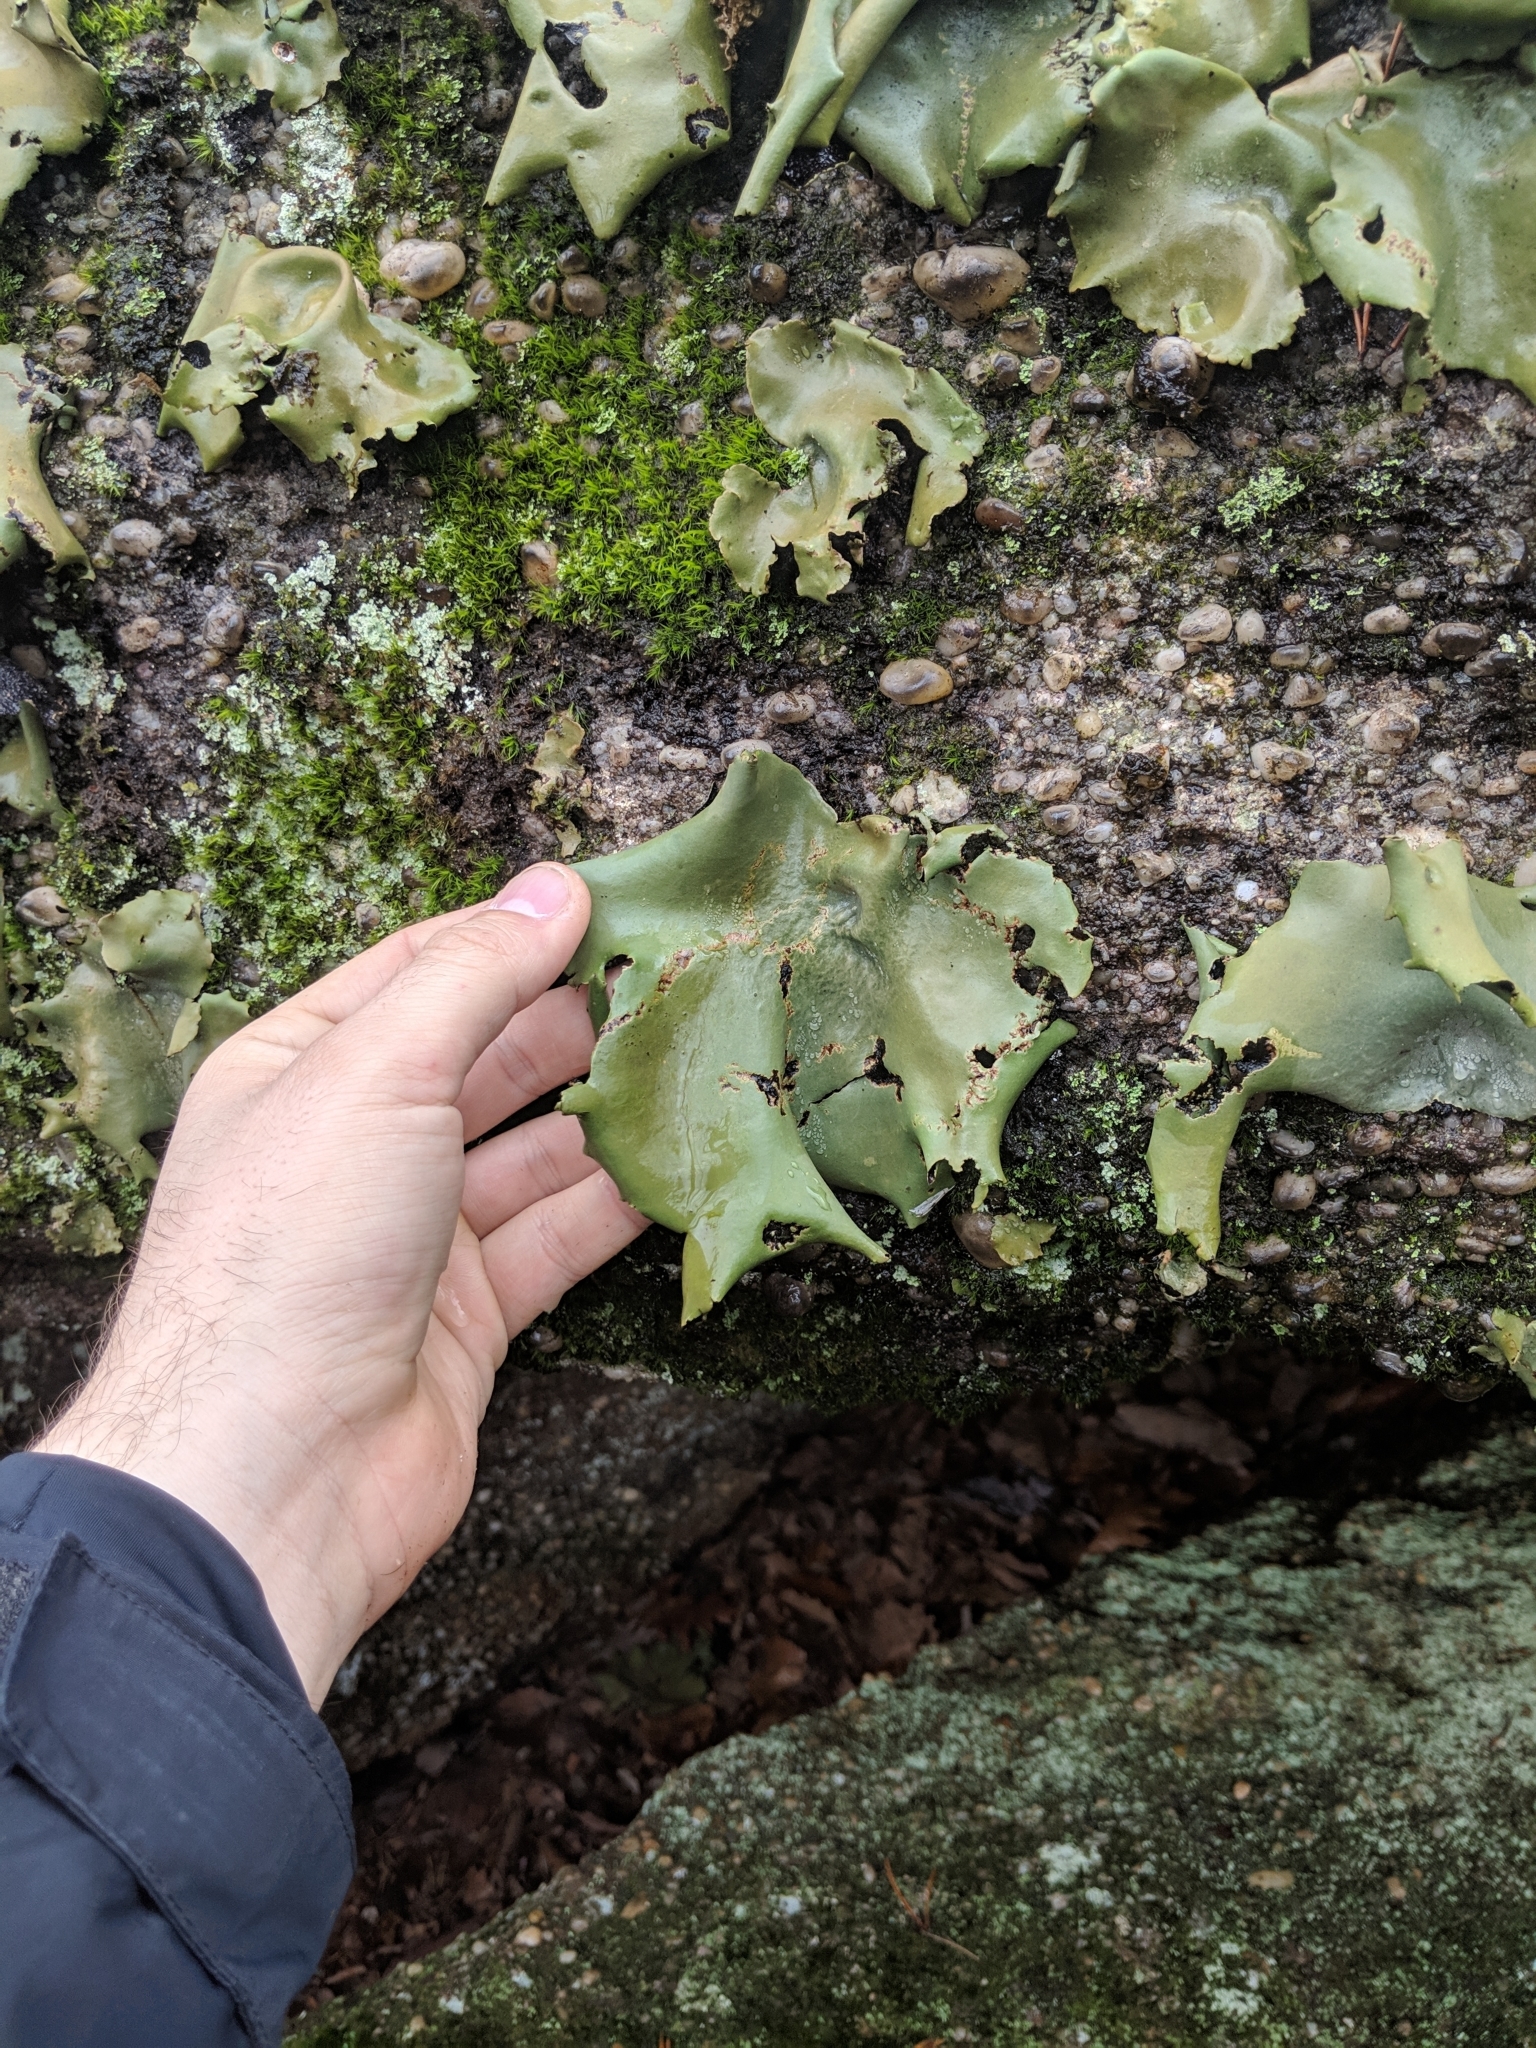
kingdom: Fungi
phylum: Ascomycota
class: Lecanoromycetes
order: Umbilicariales
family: Umbilicariaceae
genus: Umbilicaria
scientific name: Umbilicaria mammulata
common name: Smooth rock tripe
